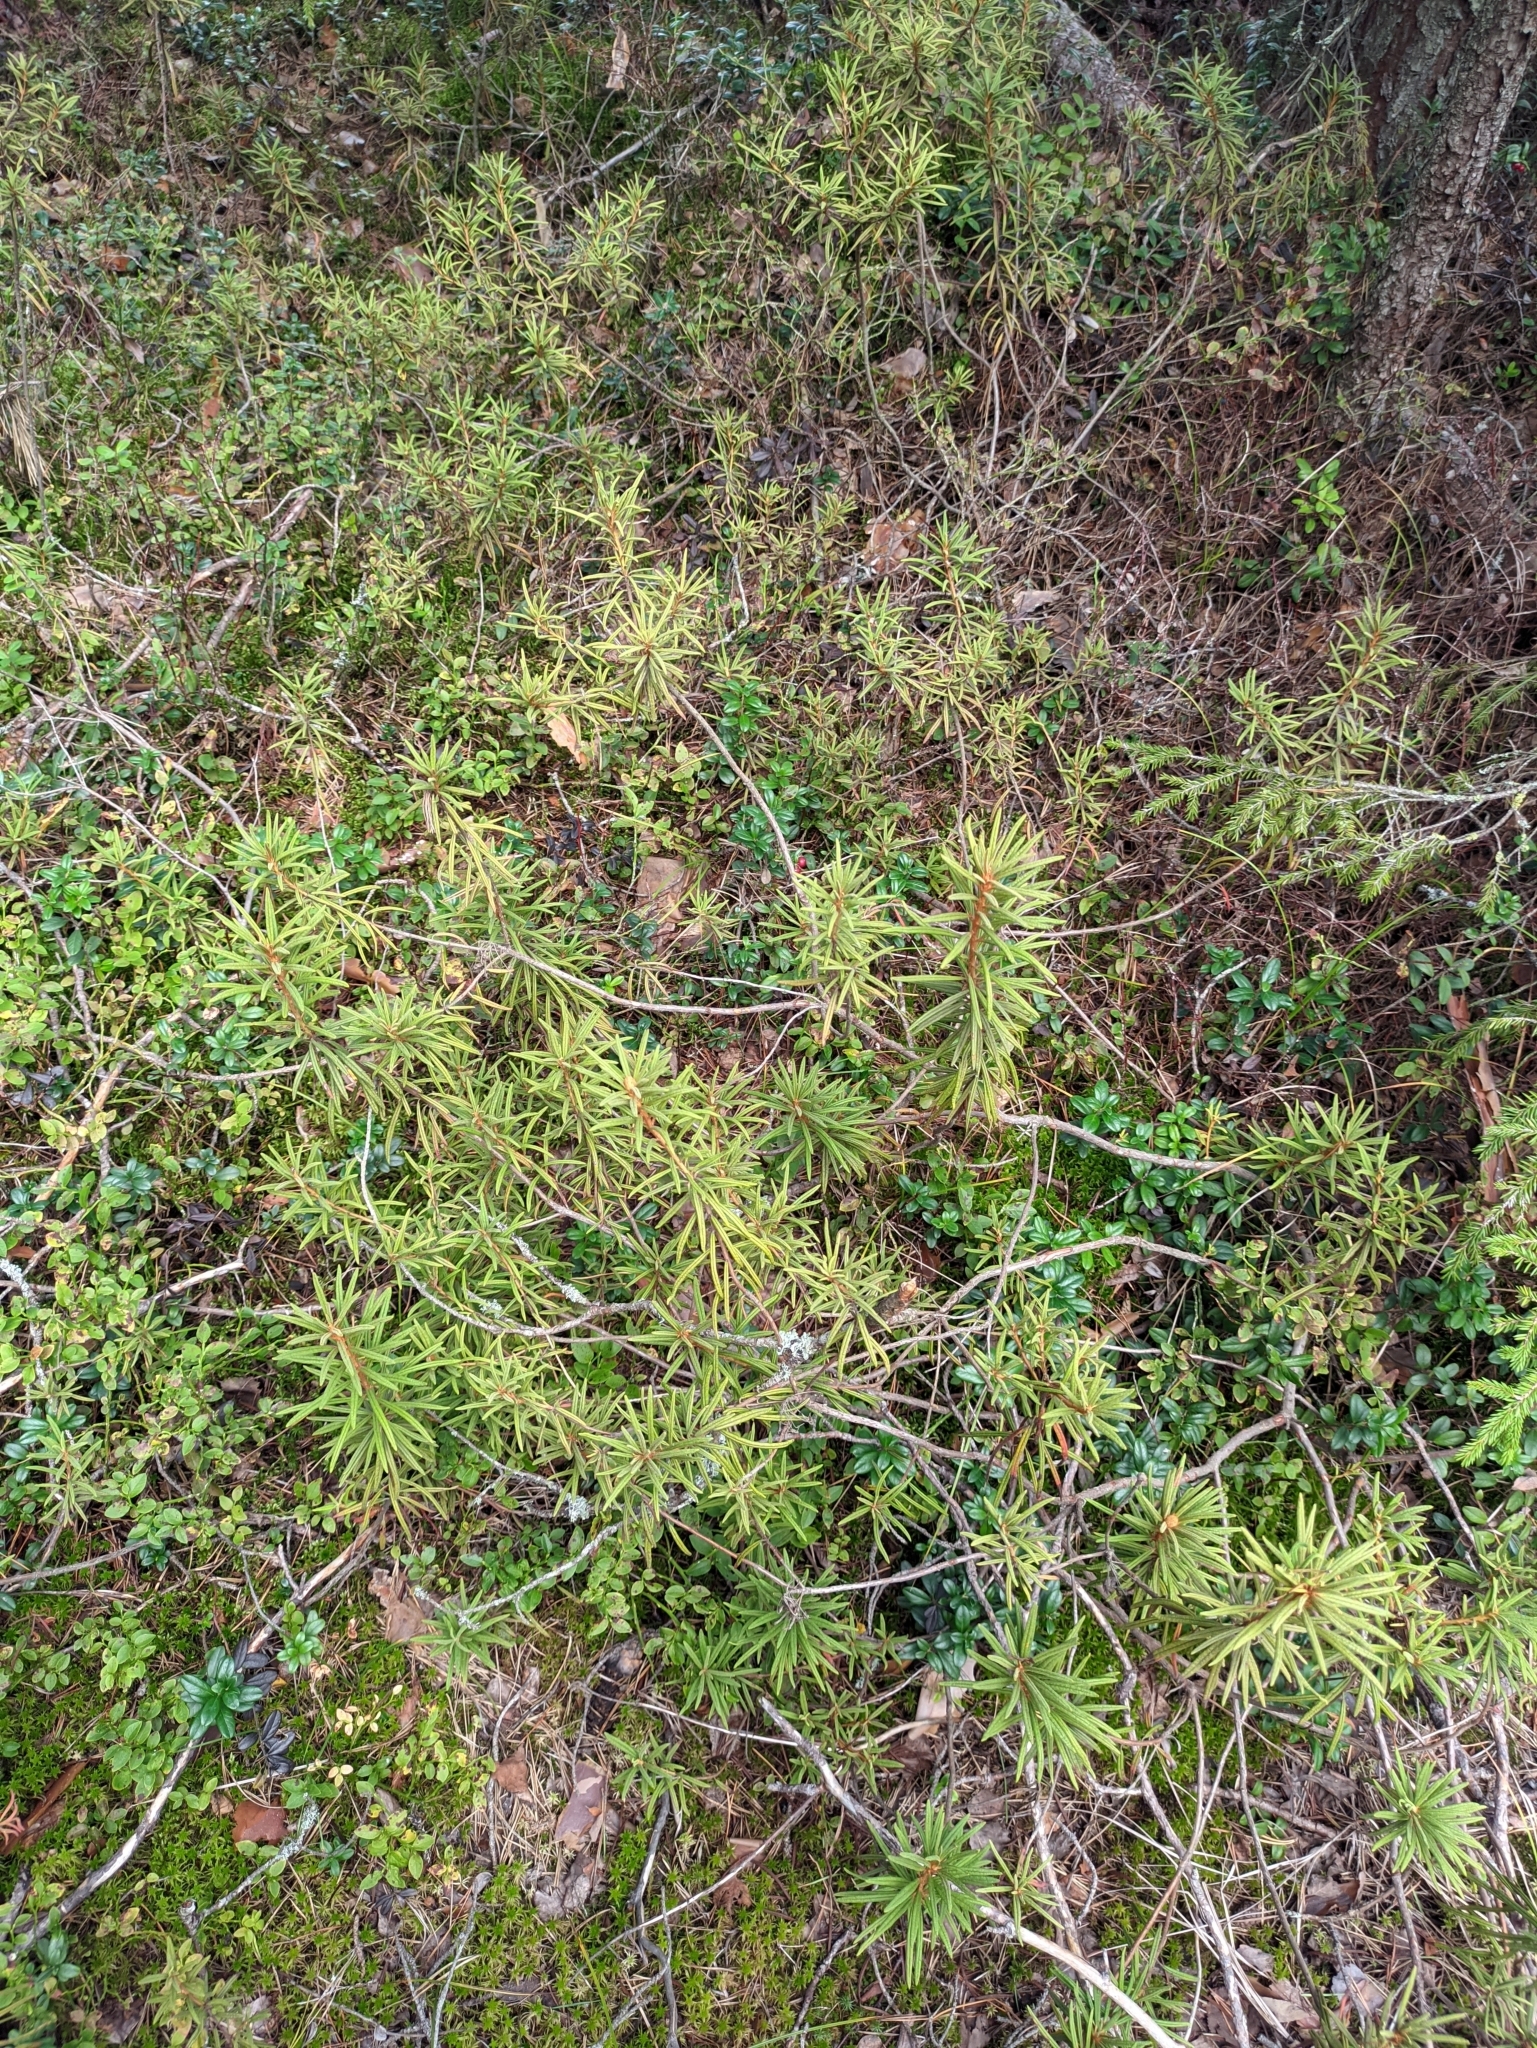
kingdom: Plantae
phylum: Tracheophyta
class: Magnoliopsida
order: Ericales
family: Ericaceae
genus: Rhododendron
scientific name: Rhododendron tomentosum
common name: Marsh labrador tea
